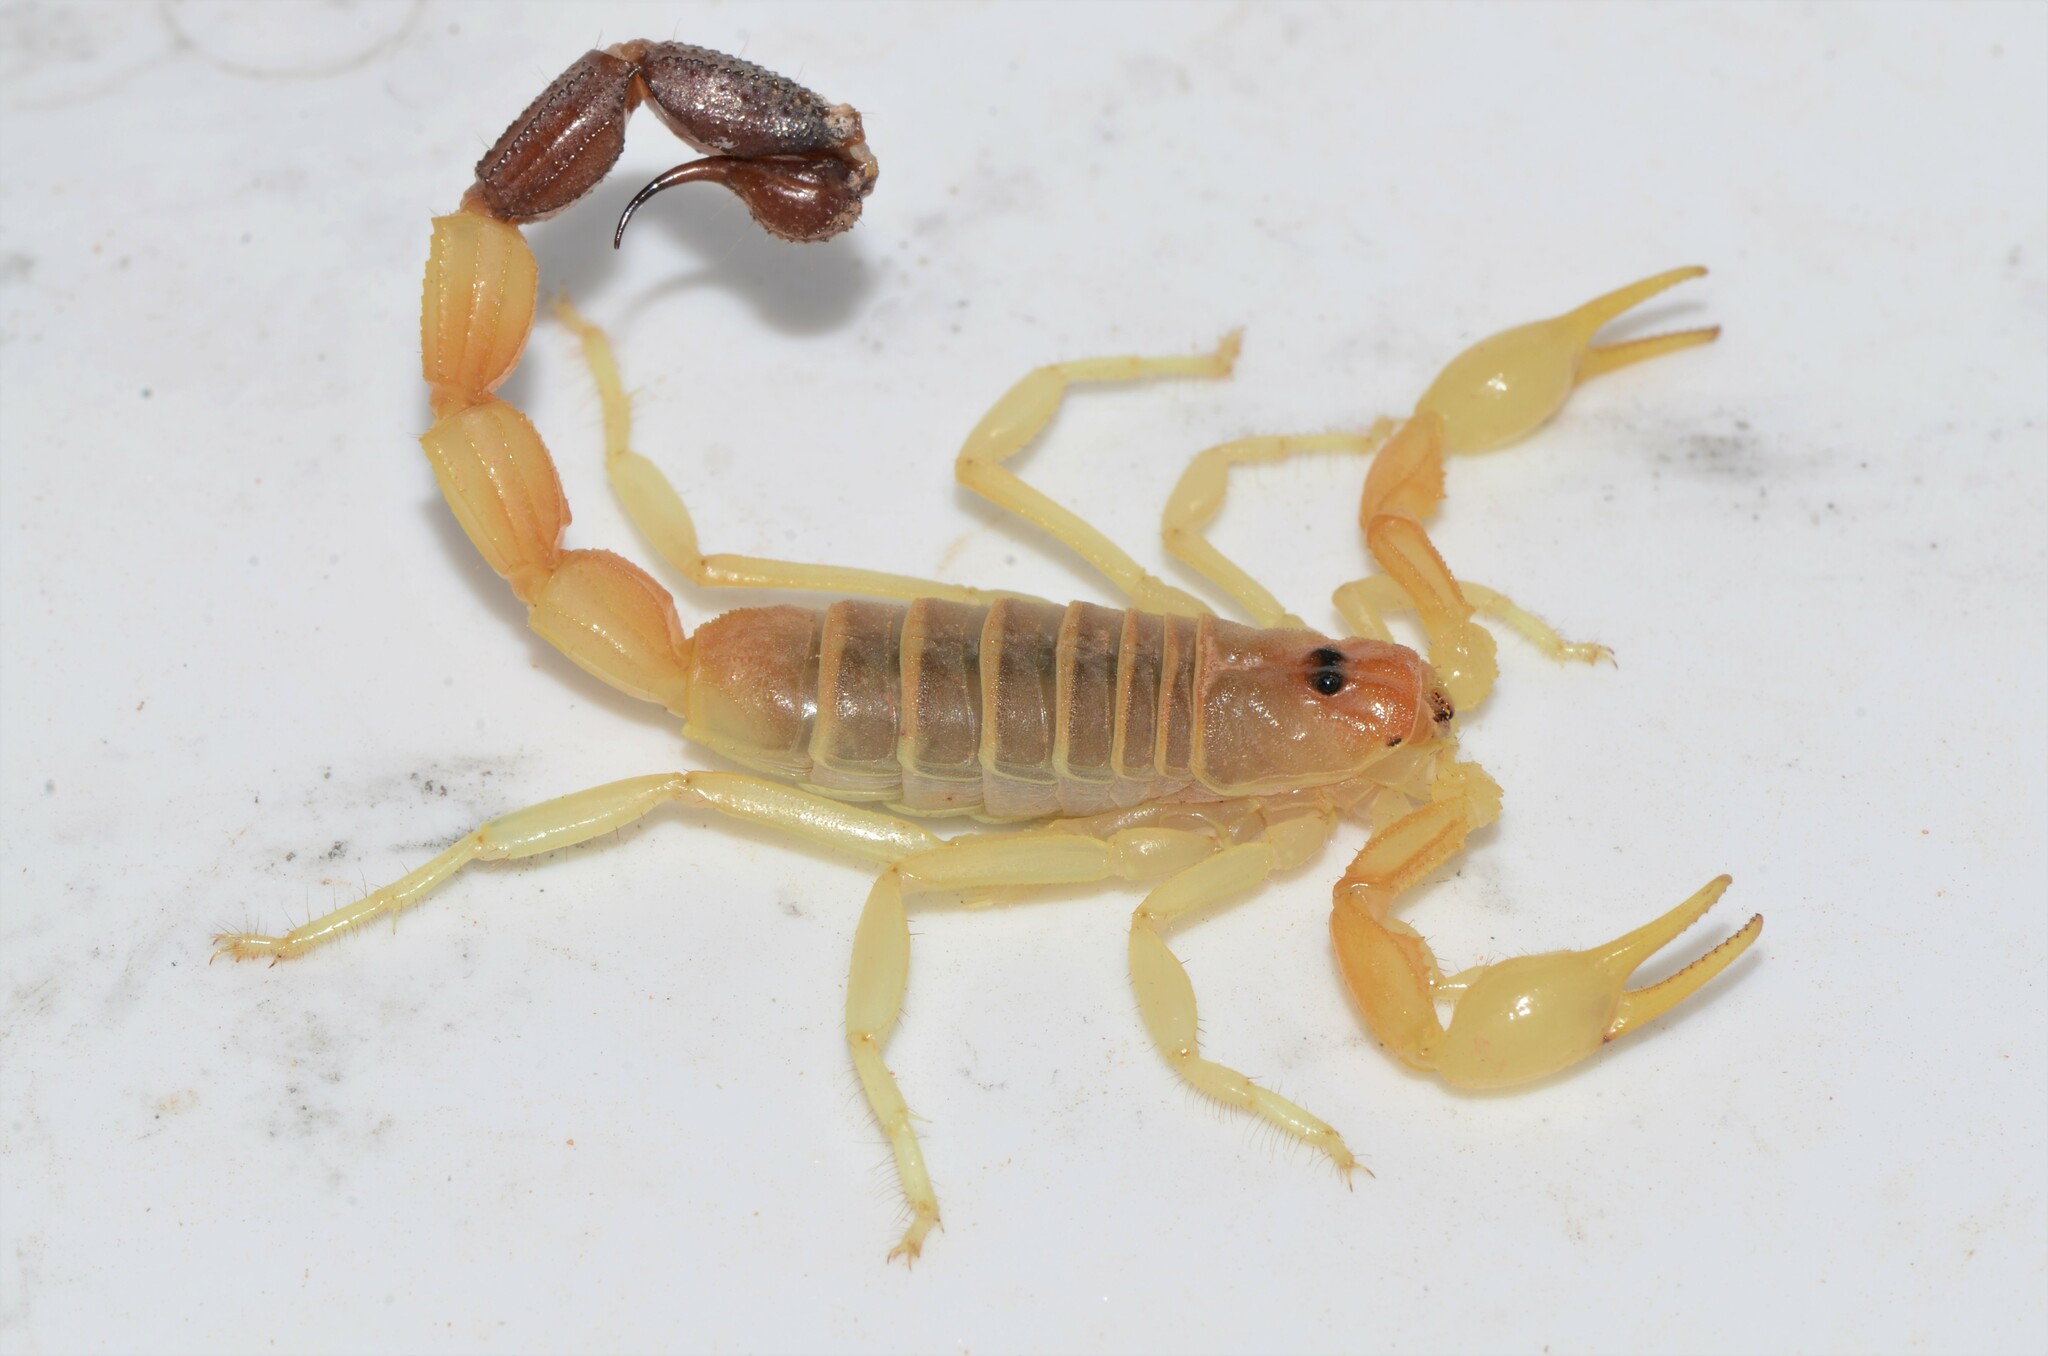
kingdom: Animalia
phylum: Arthropoda
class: Arachnida
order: Scorpiones
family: Buthidae
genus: Parabuthus
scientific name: Parabuthus laevifrons
